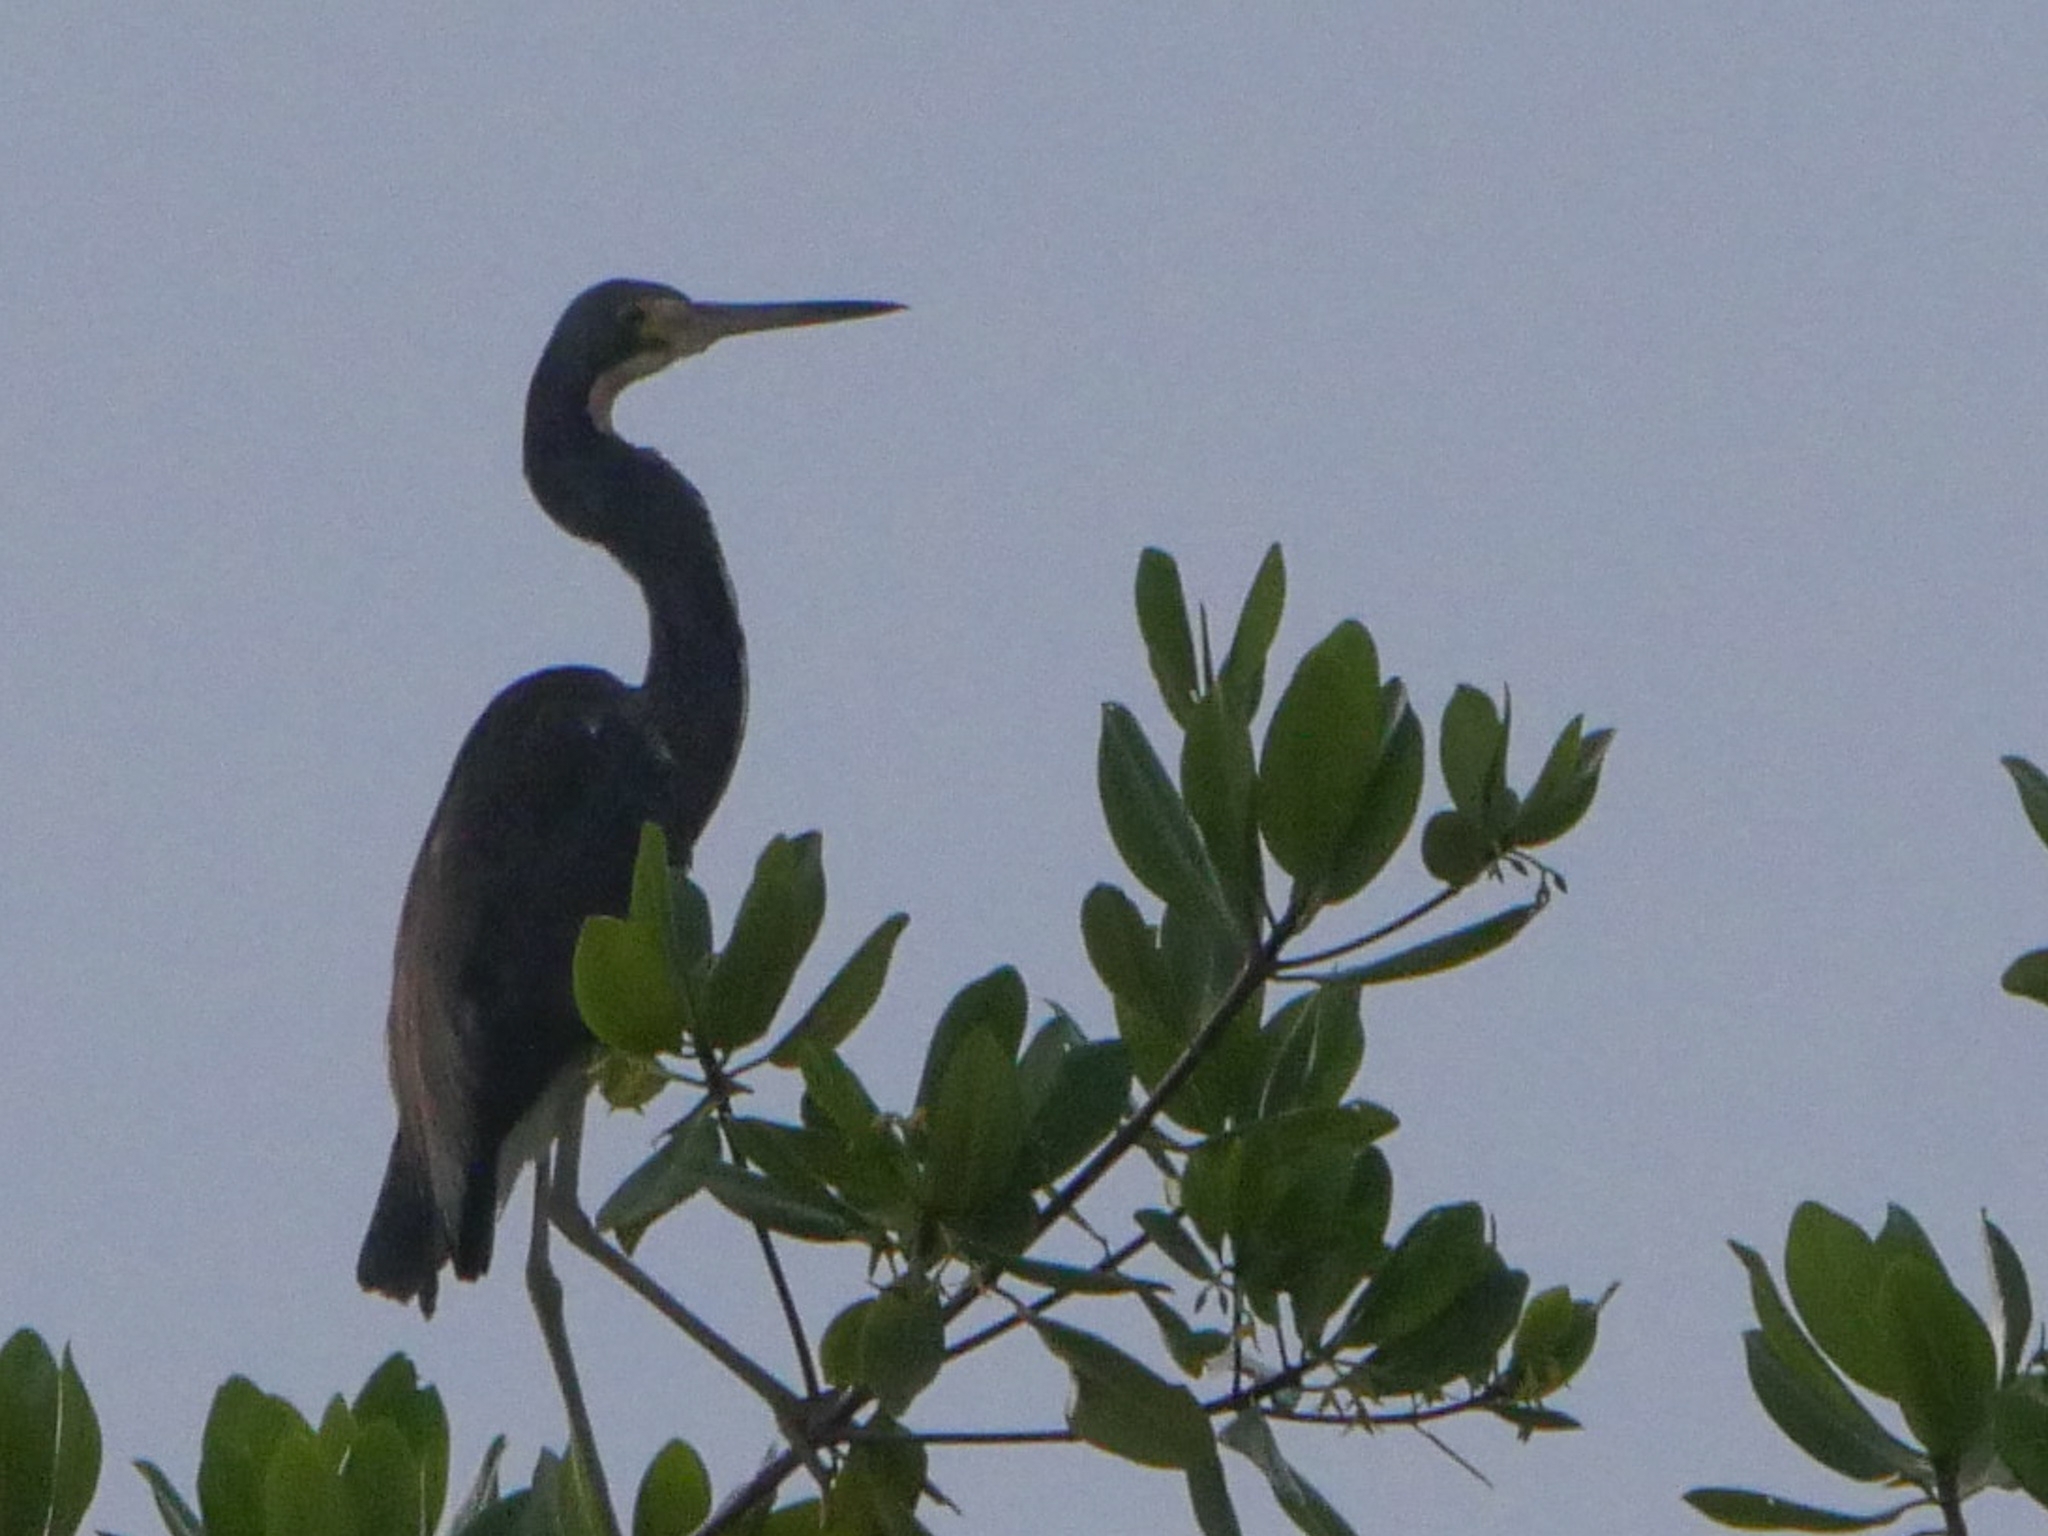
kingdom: Animalia
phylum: Chordata
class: Aves
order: Pelecaniformes
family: Ardeidae
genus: Egretta
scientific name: Egretta tricolor
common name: Tricolored heron
